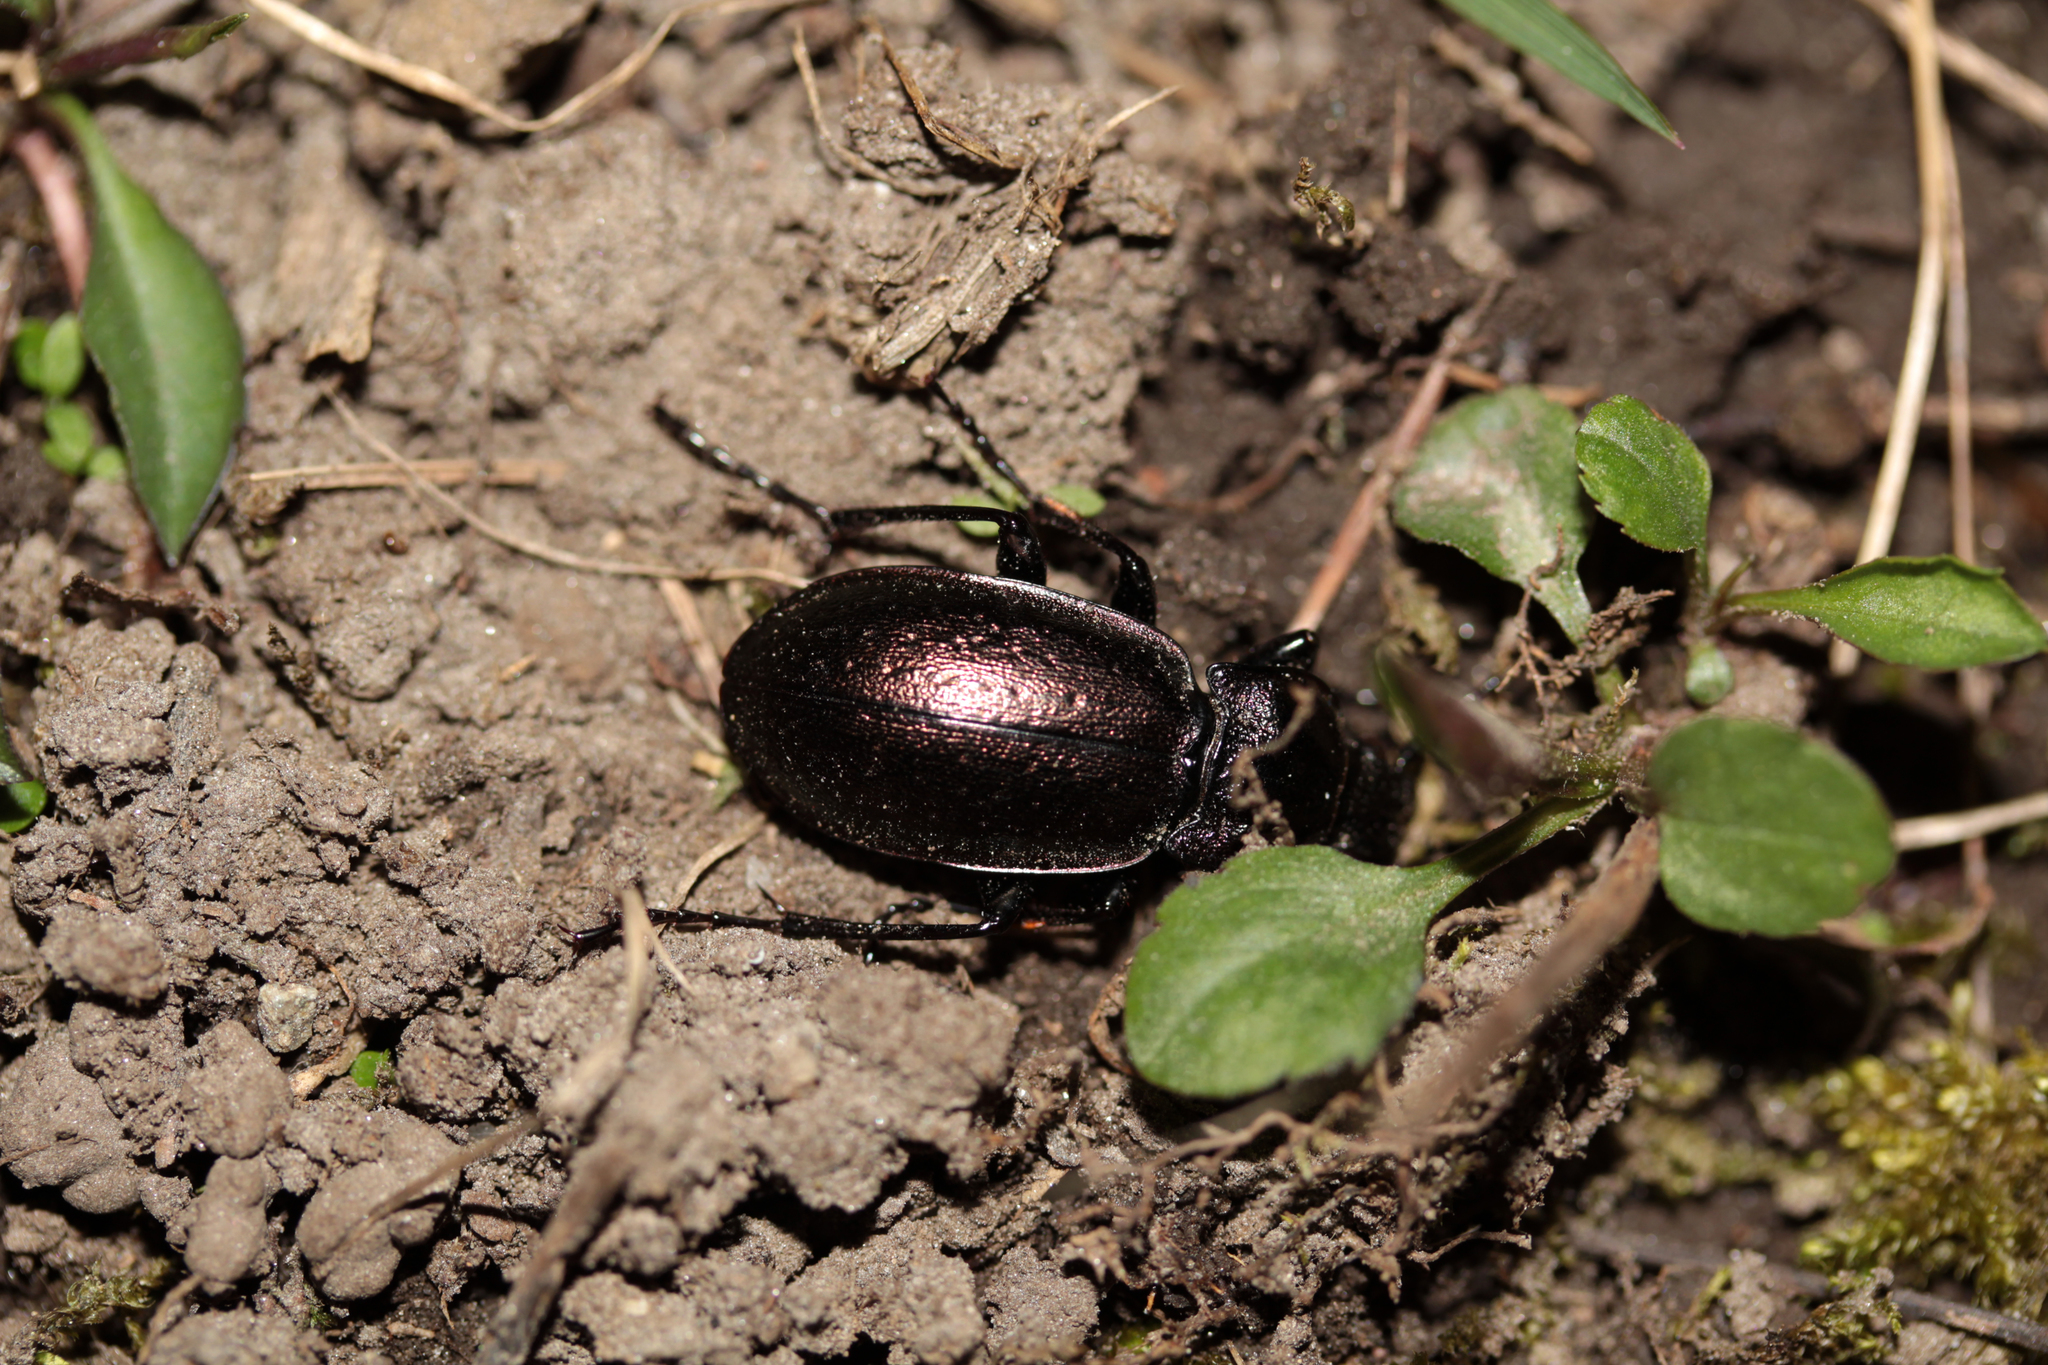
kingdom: Animalia
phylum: Arthropoda
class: Insecta
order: Coleoptera
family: Carabidae
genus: Carabus
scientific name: Carabus nemoralis
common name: European ground beetle
